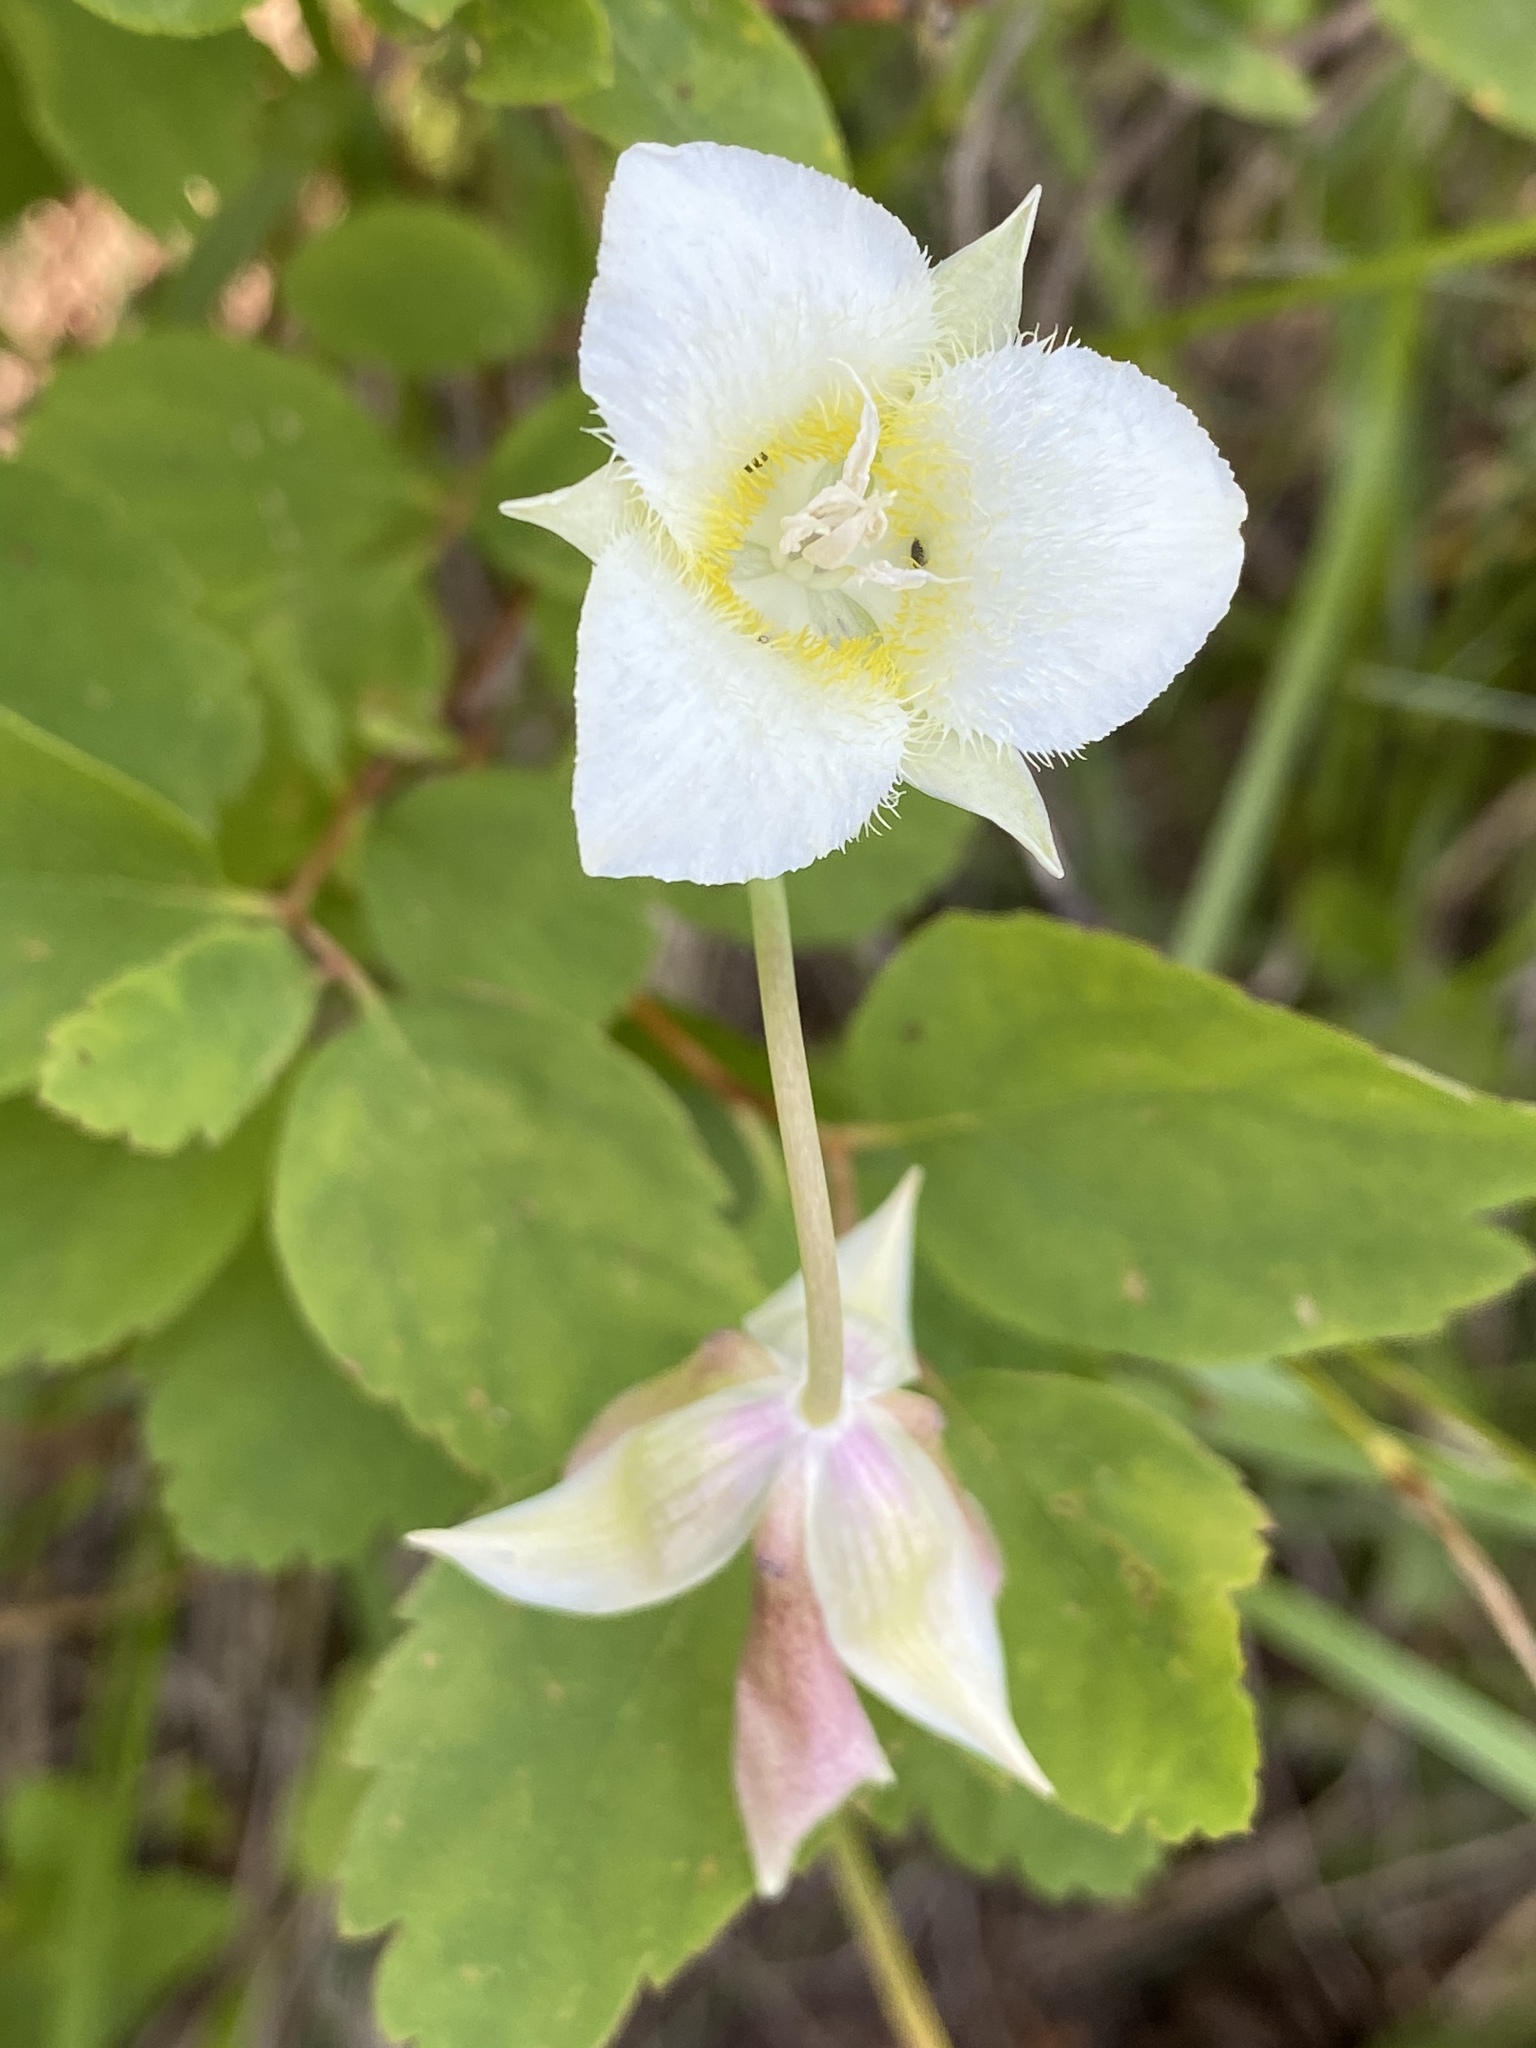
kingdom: Plantae
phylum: Tracheophyta
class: Liliopsida
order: Liliales
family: Liliaceae
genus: Calochortus
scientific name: Calochortus apiculatus
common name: Baker's mariposa lily
